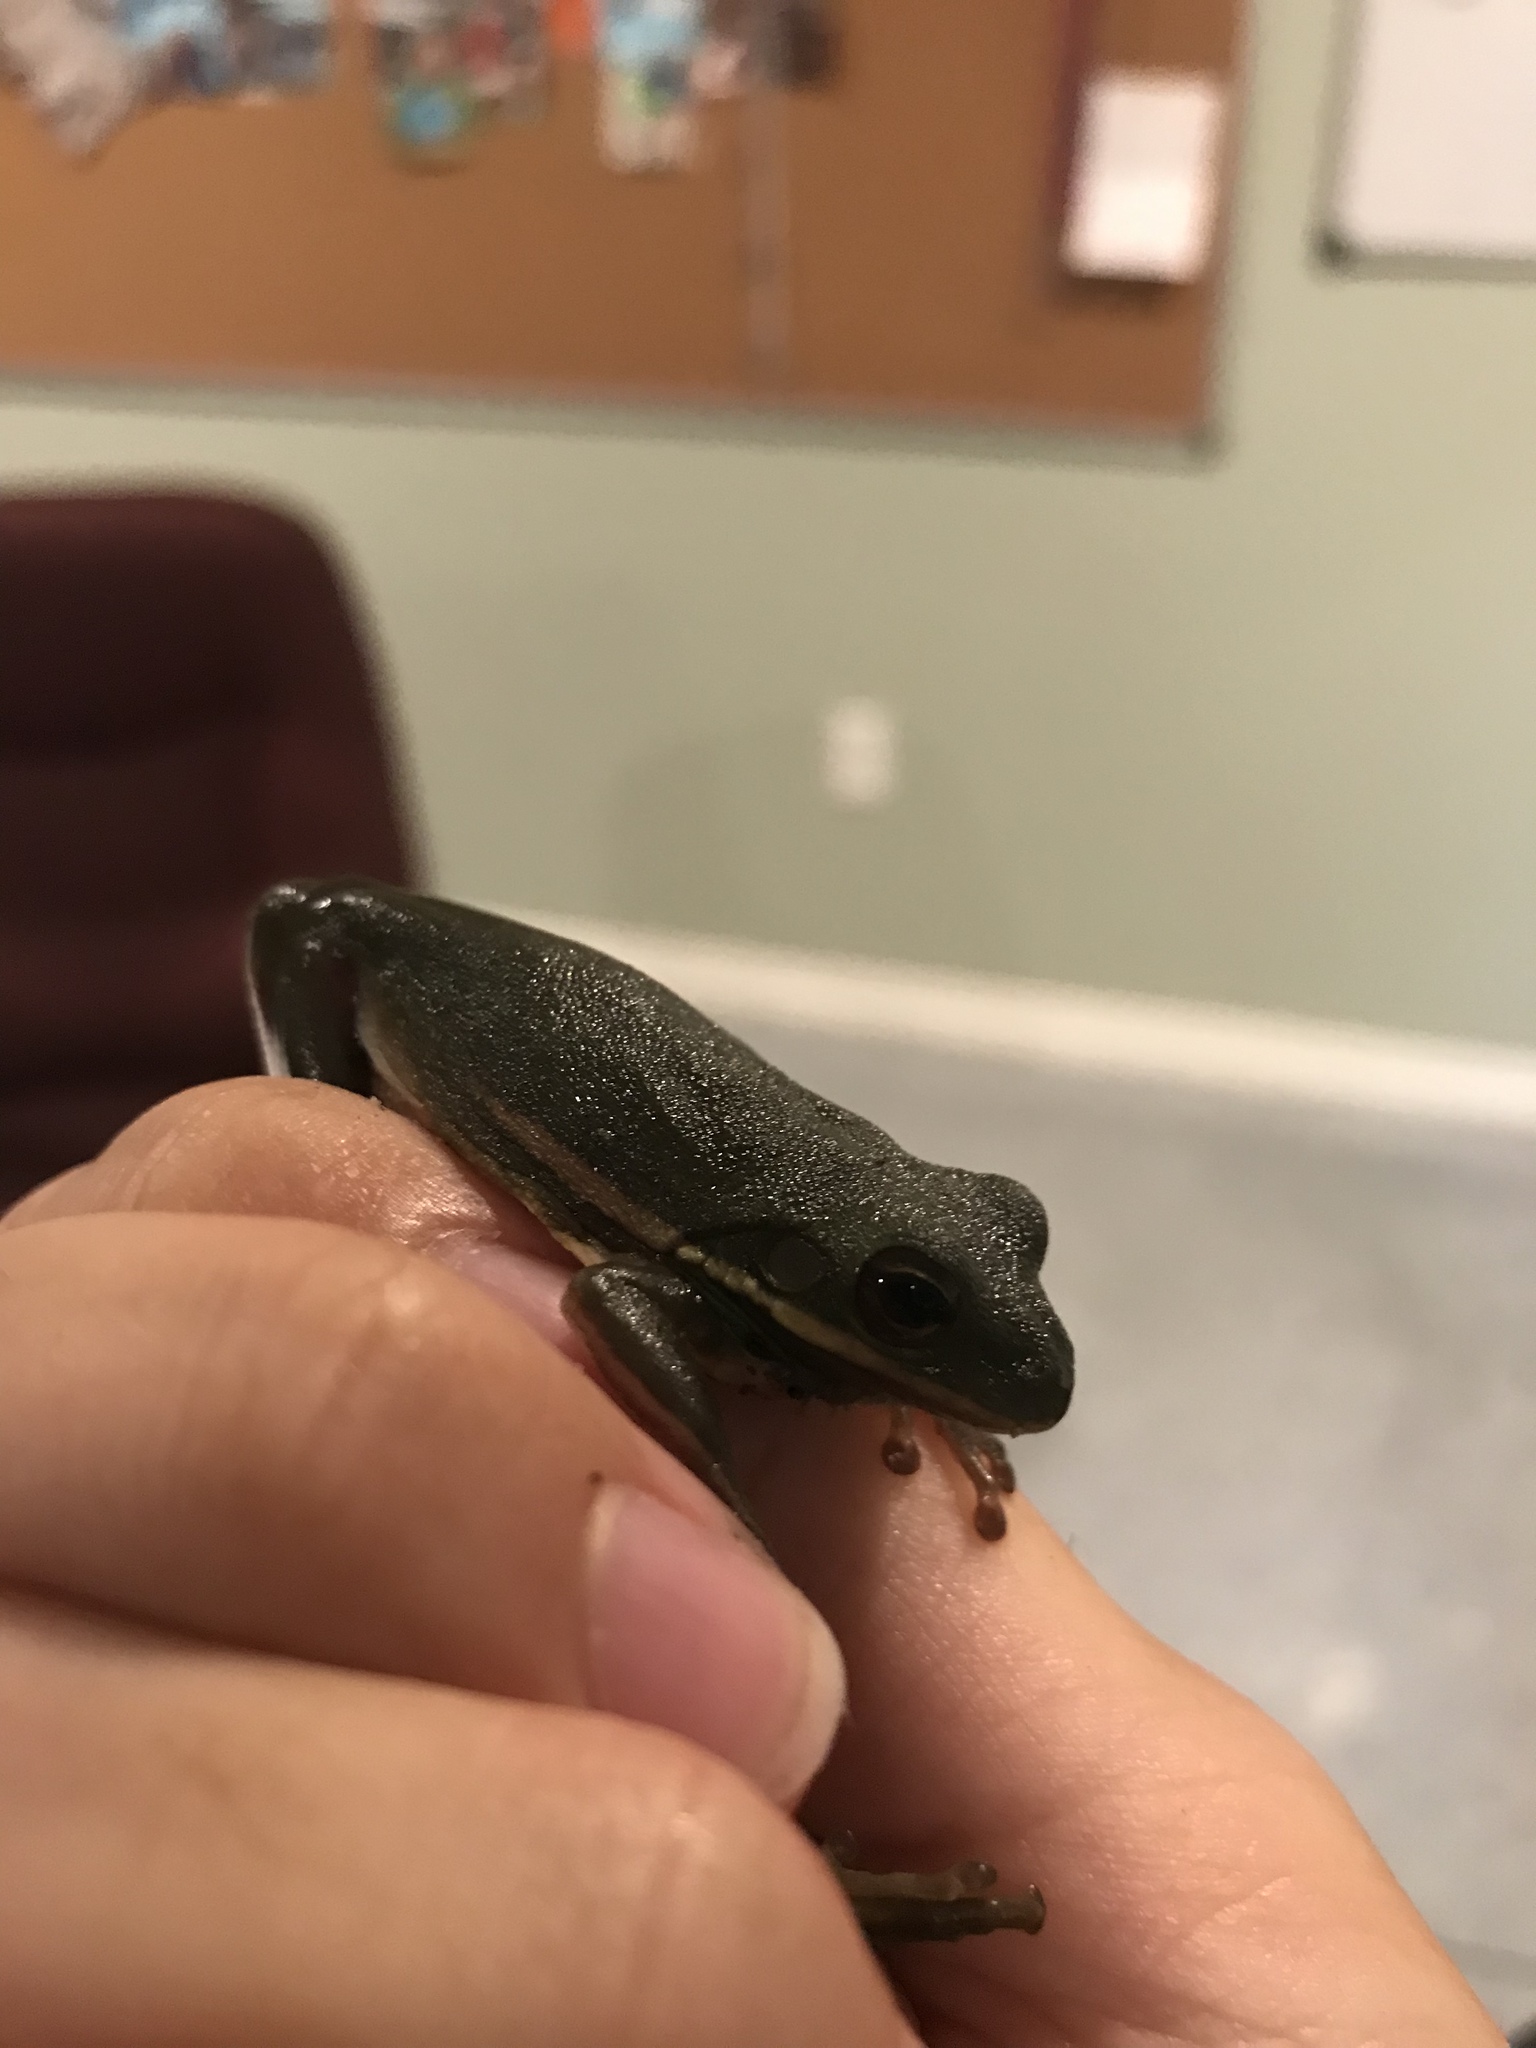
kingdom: Animalia
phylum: Chordata
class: Amphibia
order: Anura
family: Hylidae
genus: Dryophytes
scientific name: Dryophytes cinereus
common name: Green treefrog
